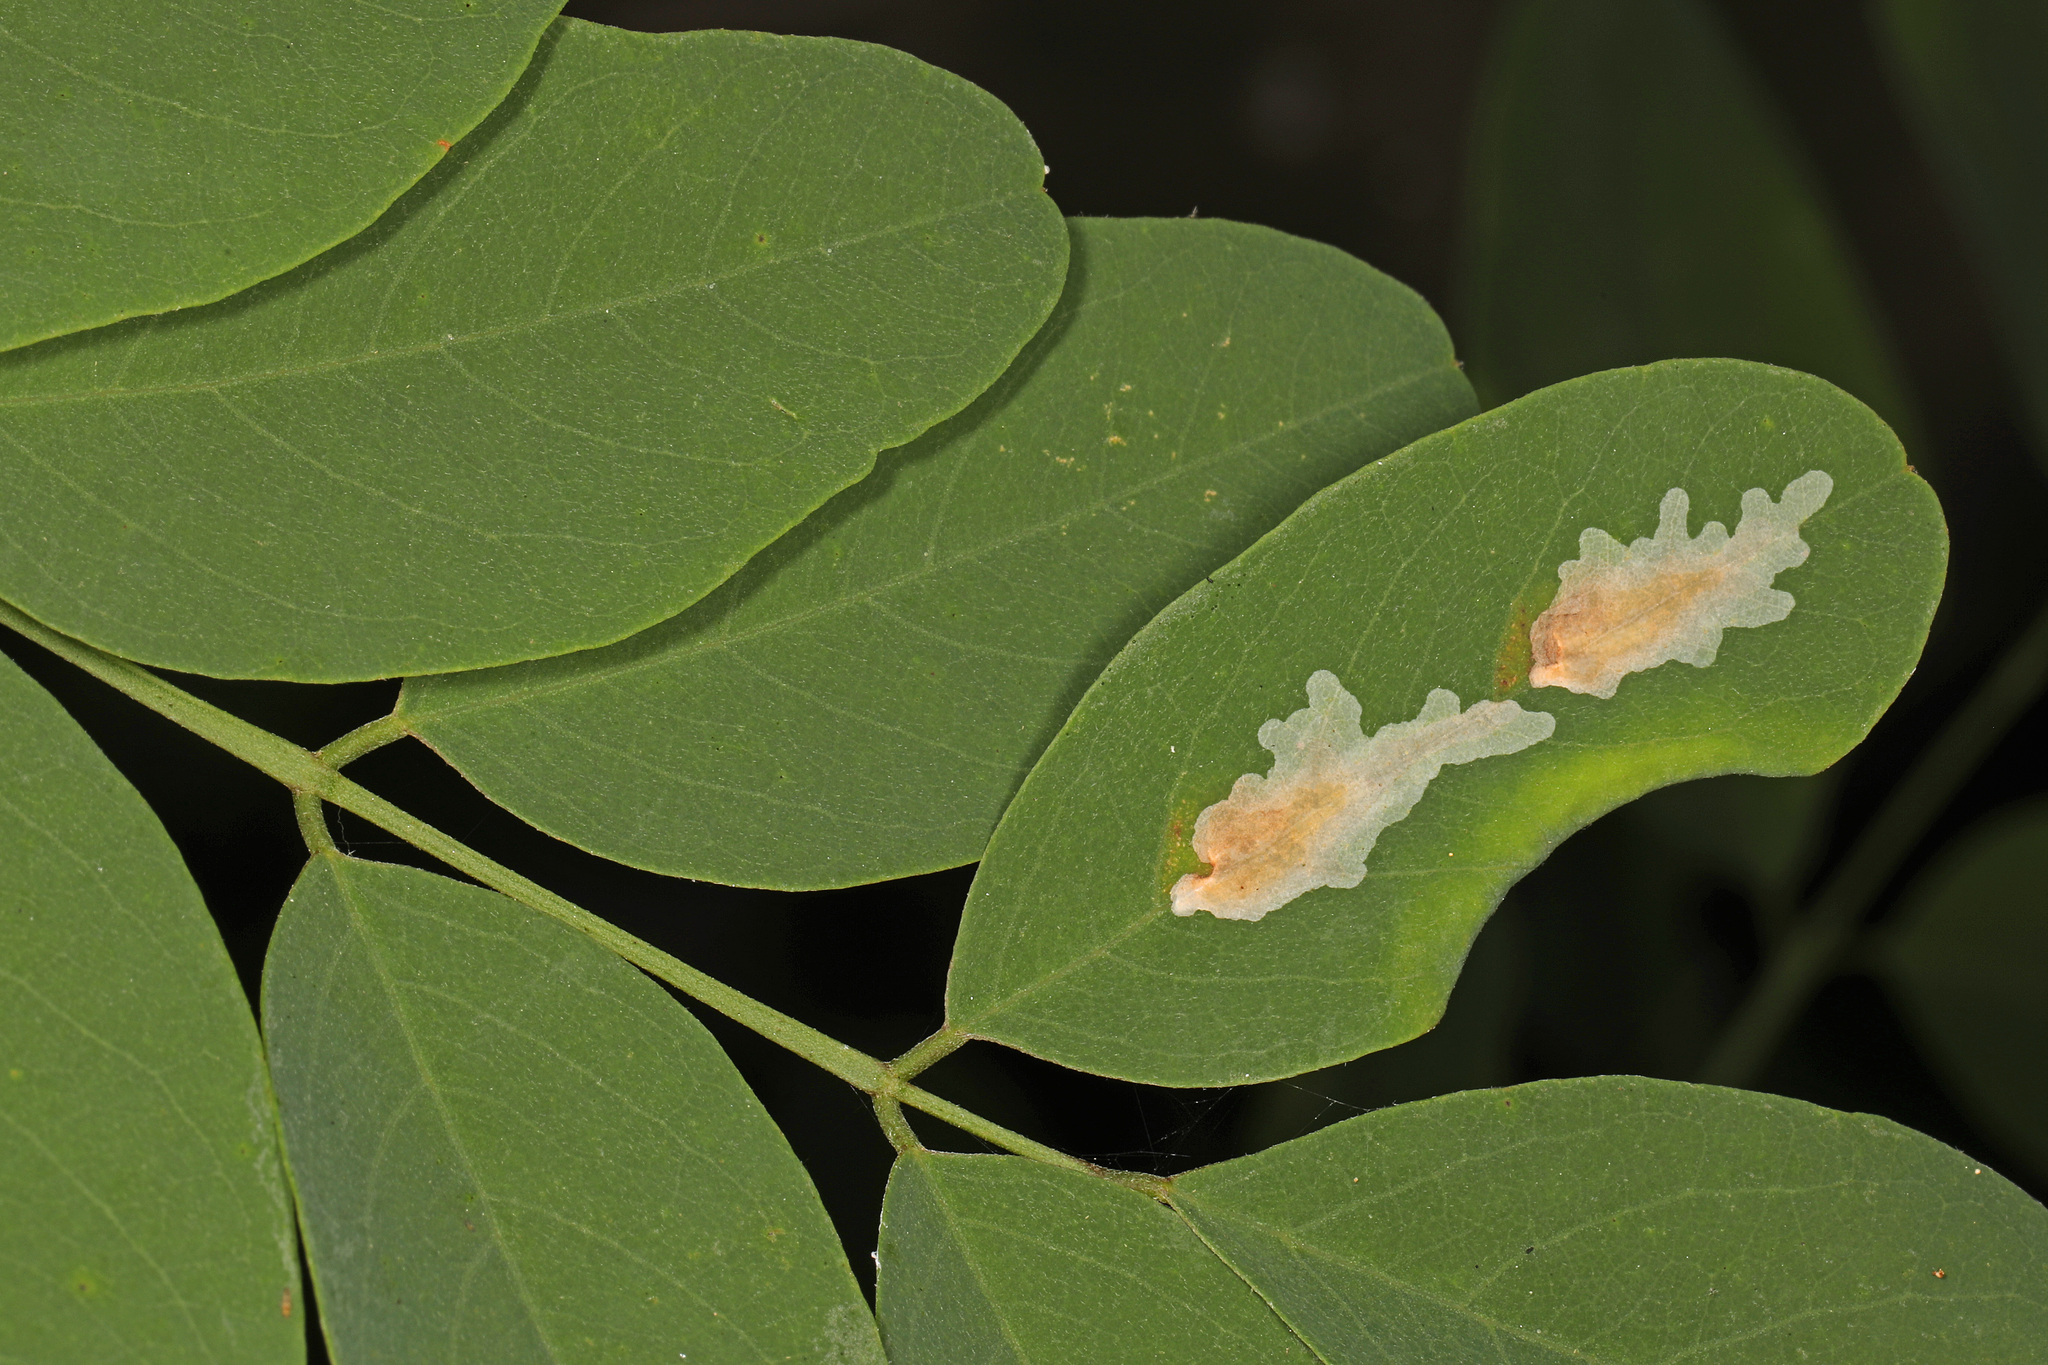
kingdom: Animalia
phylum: Arthropoda
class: Insecta
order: Lepidoptera
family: Gracillariidae
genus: Parectopa
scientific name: Parectopa robiniella
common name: Locust digitate leafminer
